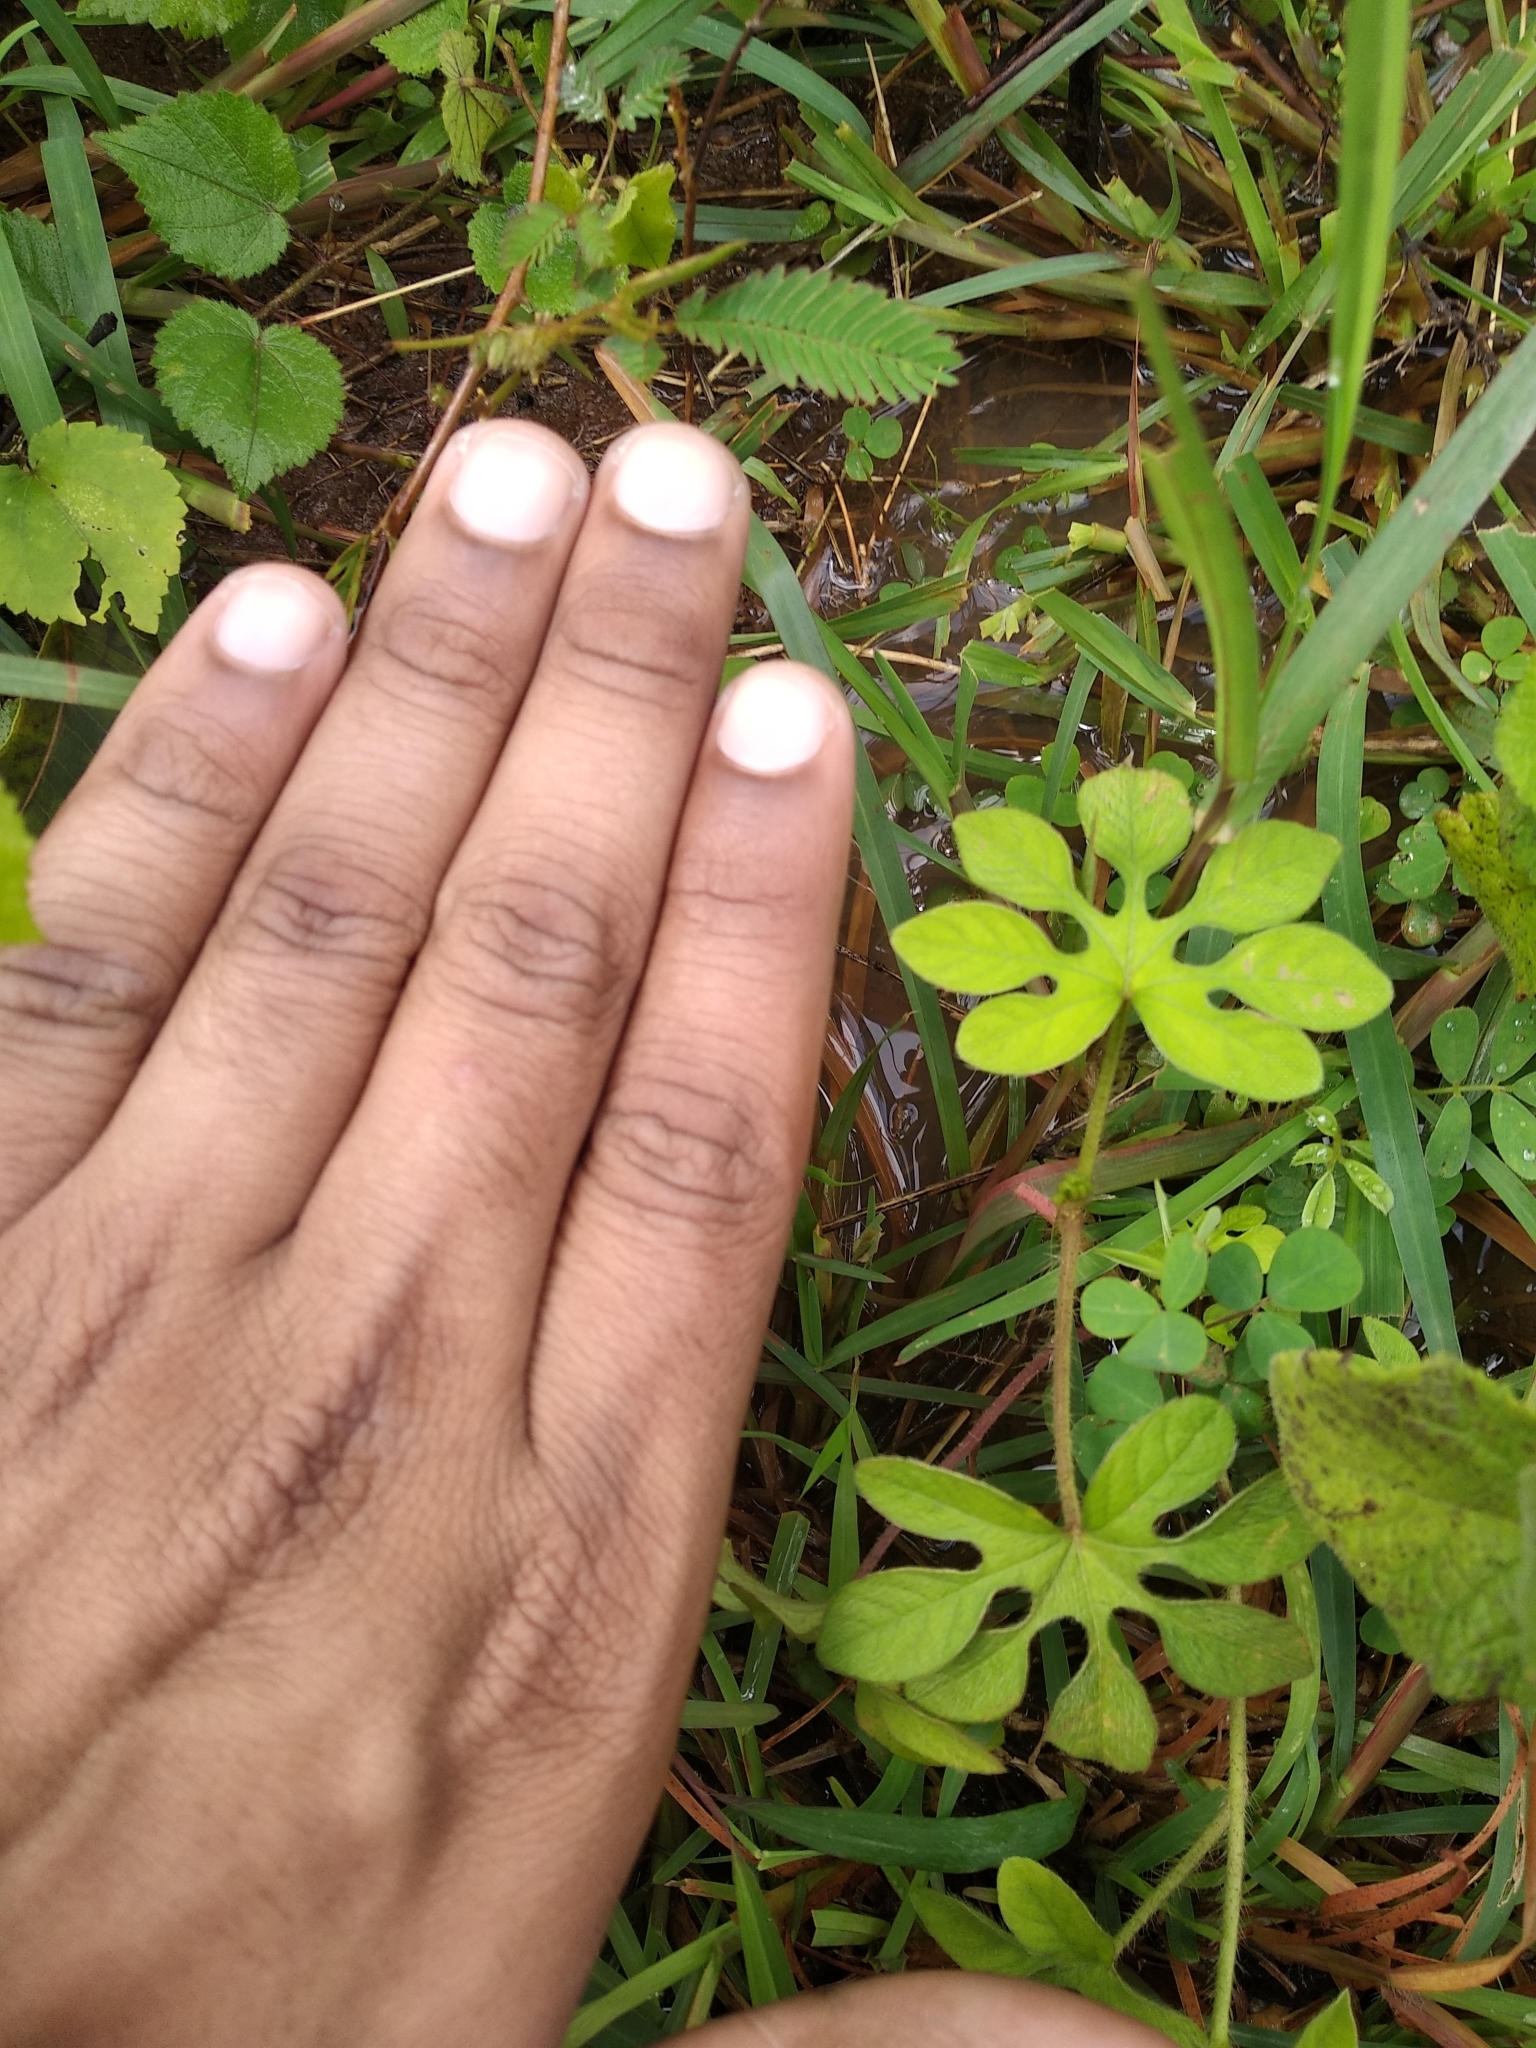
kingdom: Plantae
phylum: Tracheophyta
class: Magnoliopsida
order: Malvales
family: Malvaceae
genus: Urena
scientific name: Urena lobata
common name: Caesarweed
